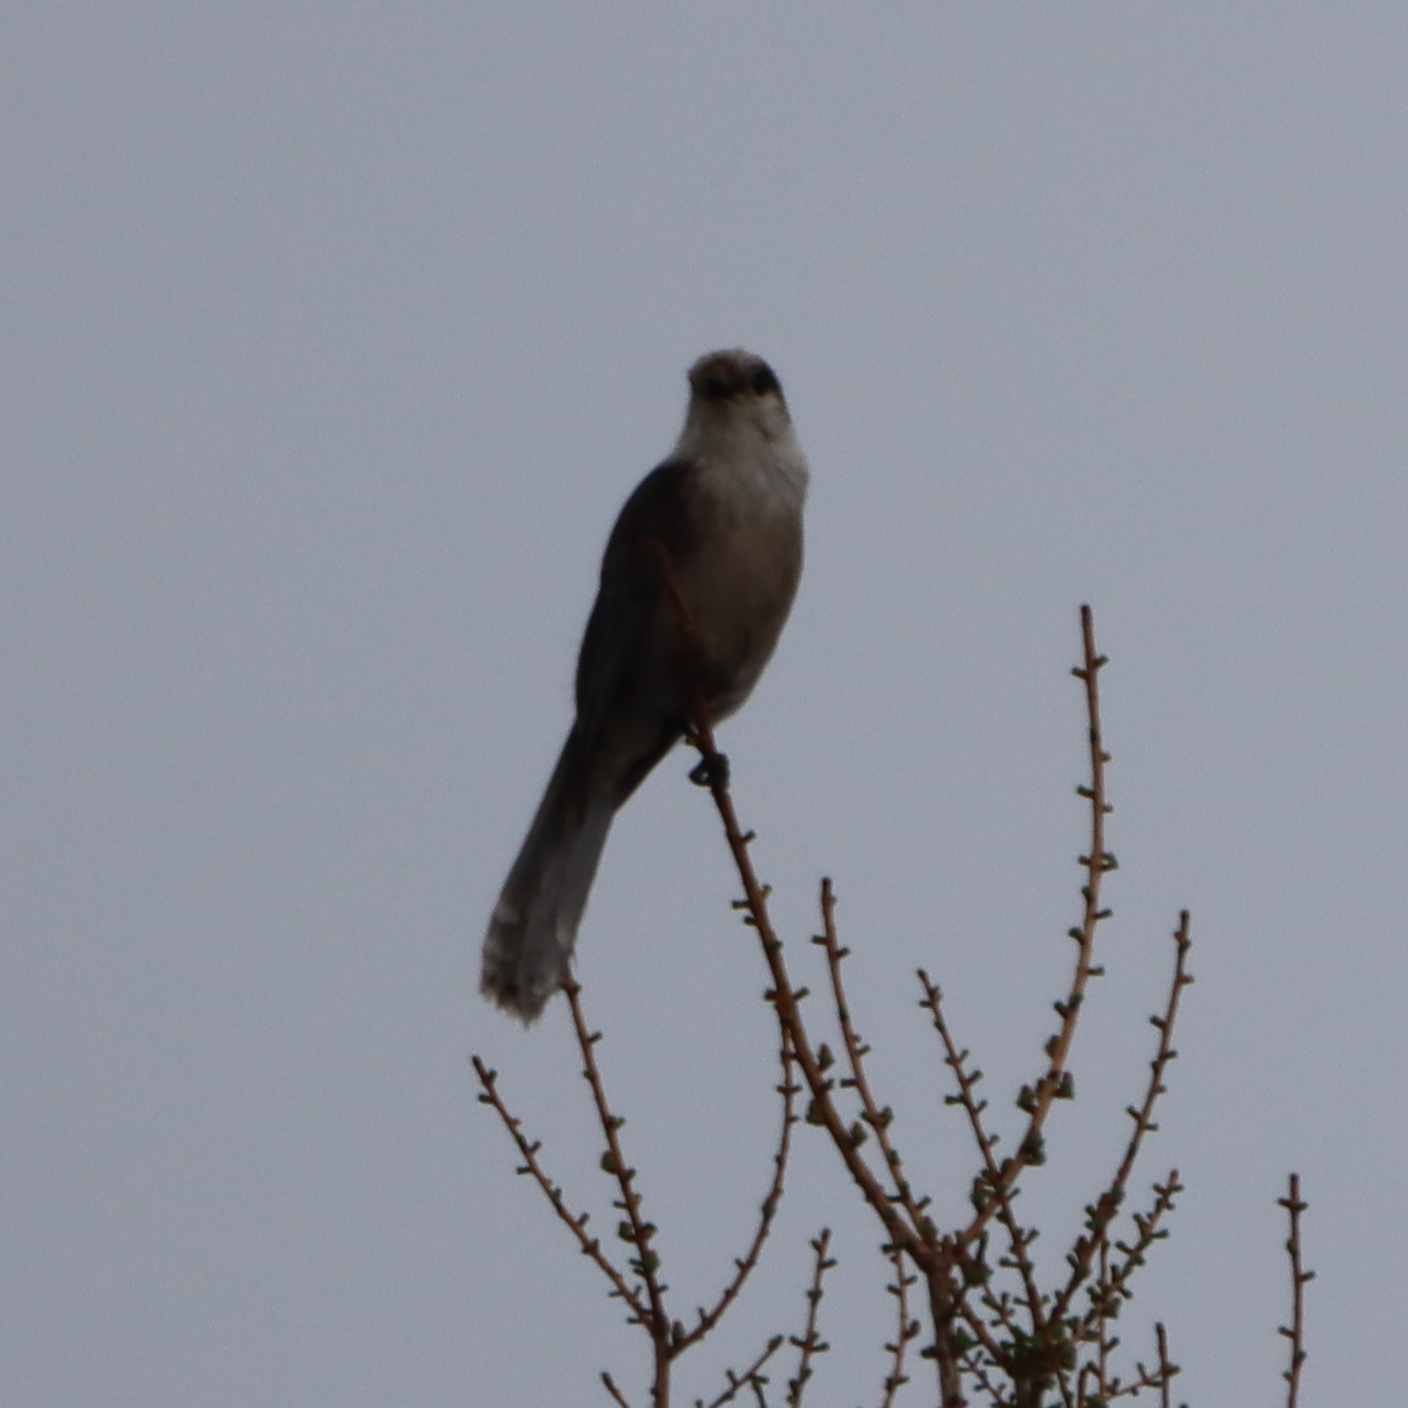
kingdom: Animalia
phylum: Chordata
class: Aves
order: Passeriformes
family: Corvidae
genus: Perisoreus
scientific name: Perisoreus canadensis
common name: Gray jay
